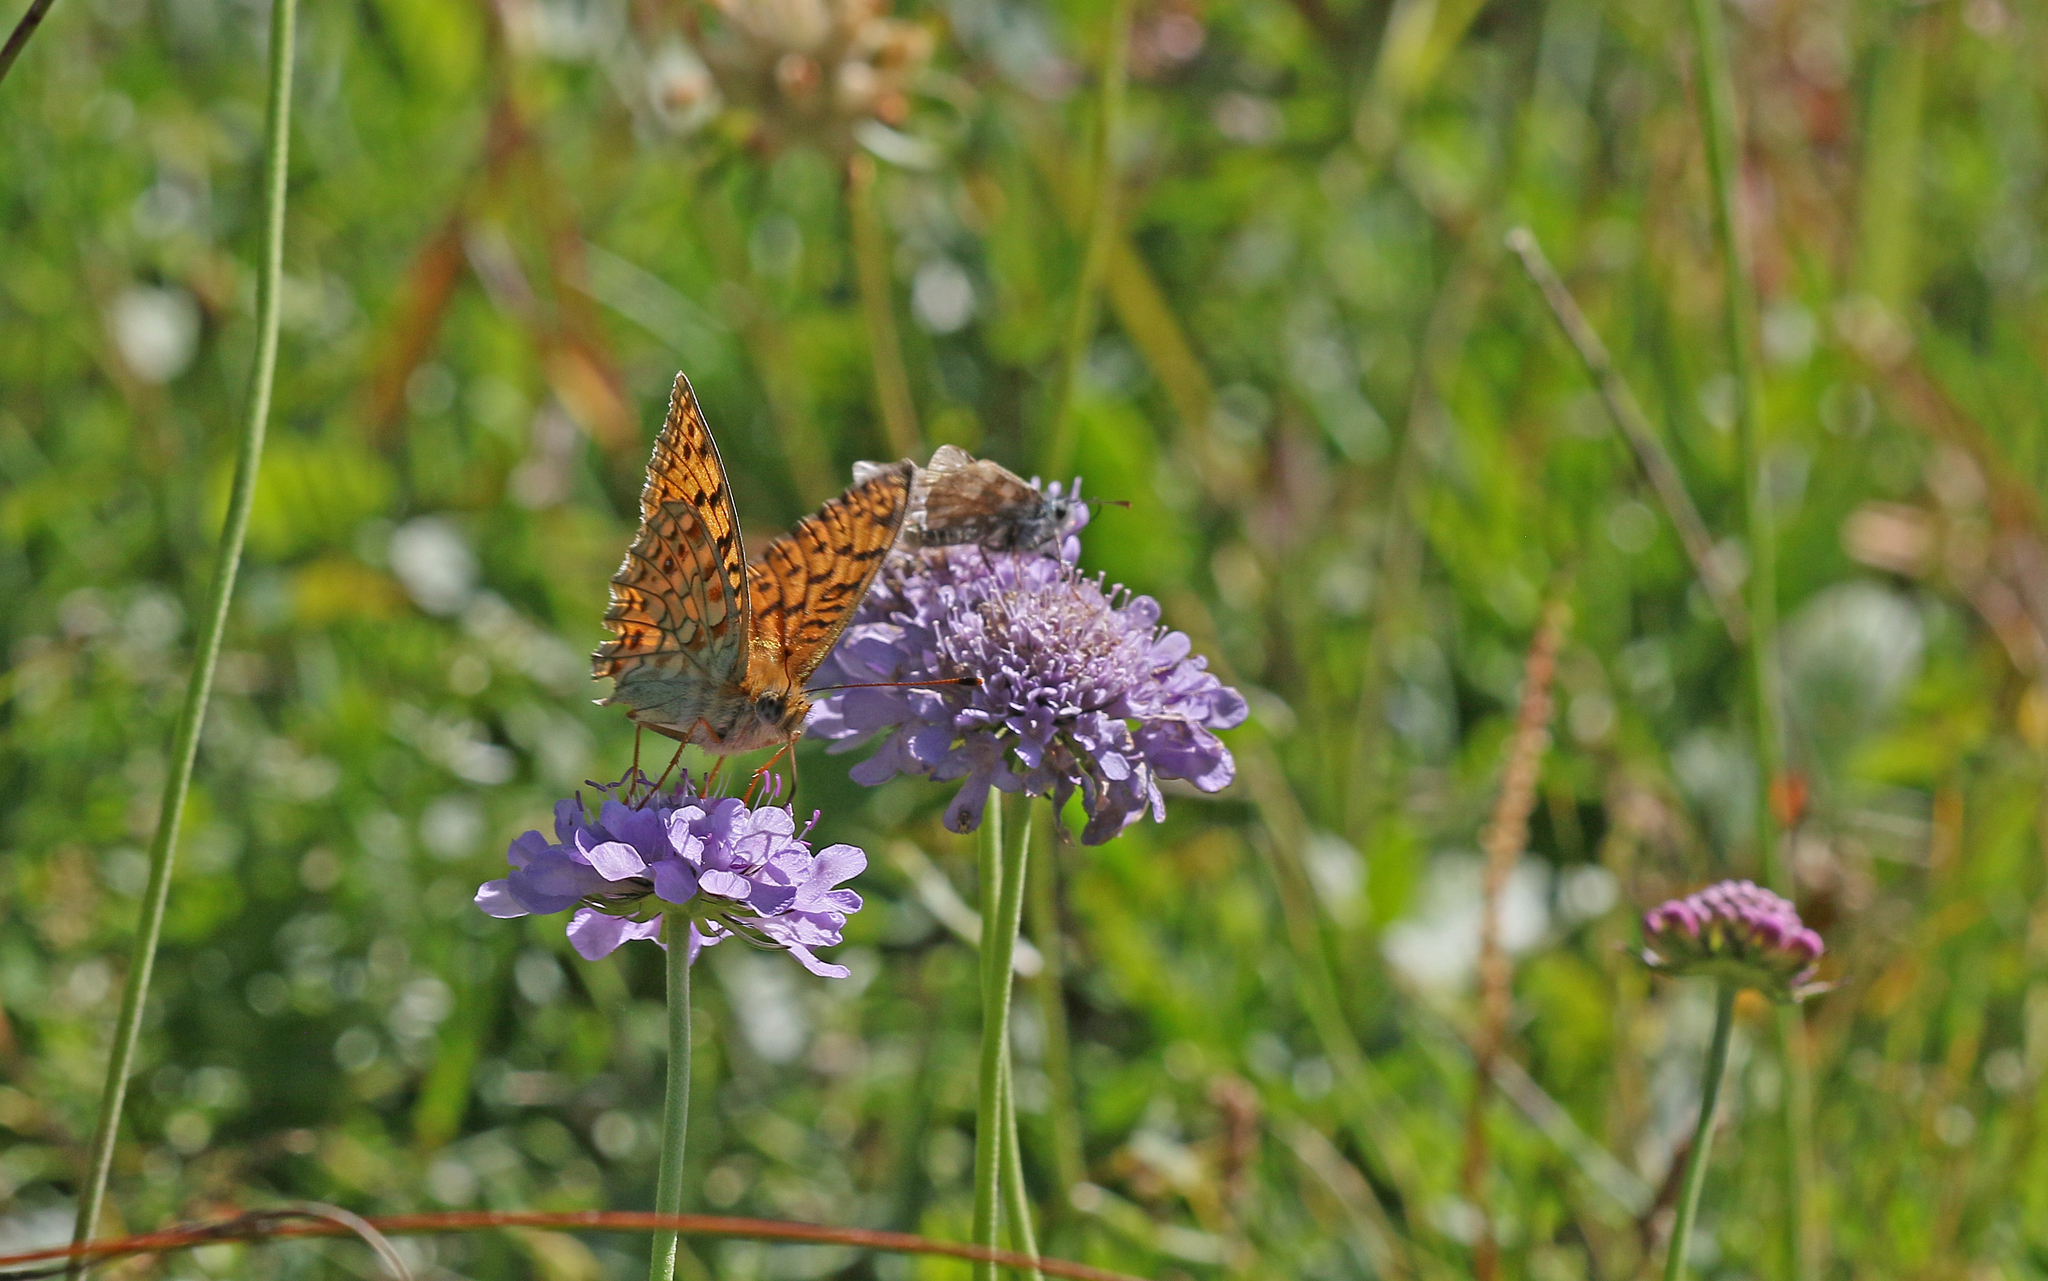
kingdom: Animalia
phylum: Arthropoda
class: Insecta
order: Lepidoptera
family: Nymphalidae
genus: Fabriciana
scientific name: Fabriciana niobe
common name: Niobe fritillary
